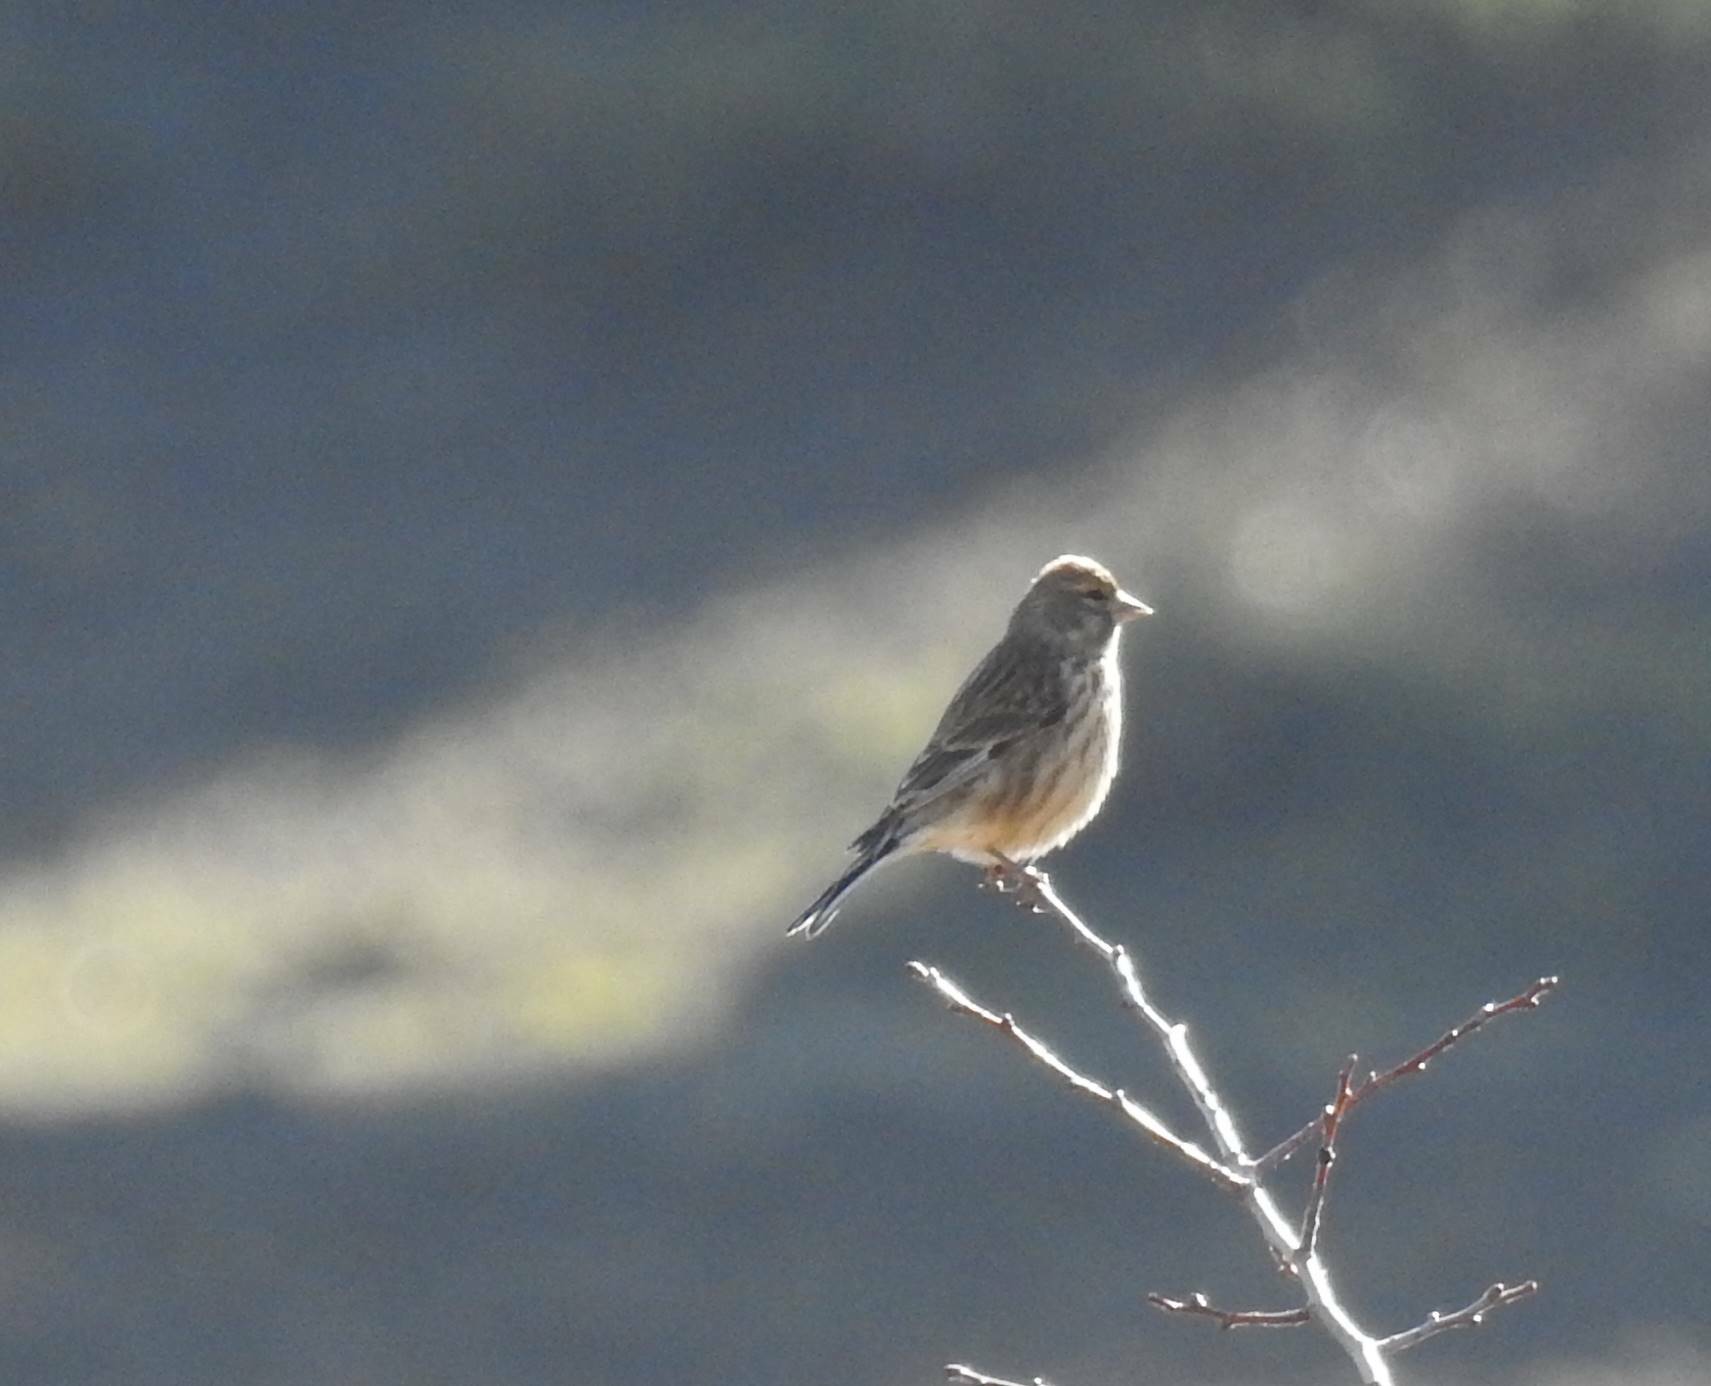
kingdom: Animalia
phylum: Chordata
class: Aves
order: Passeriformes
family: Fringillidae
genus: Linaria
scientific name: Linaria cannabina
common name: Common linnet
